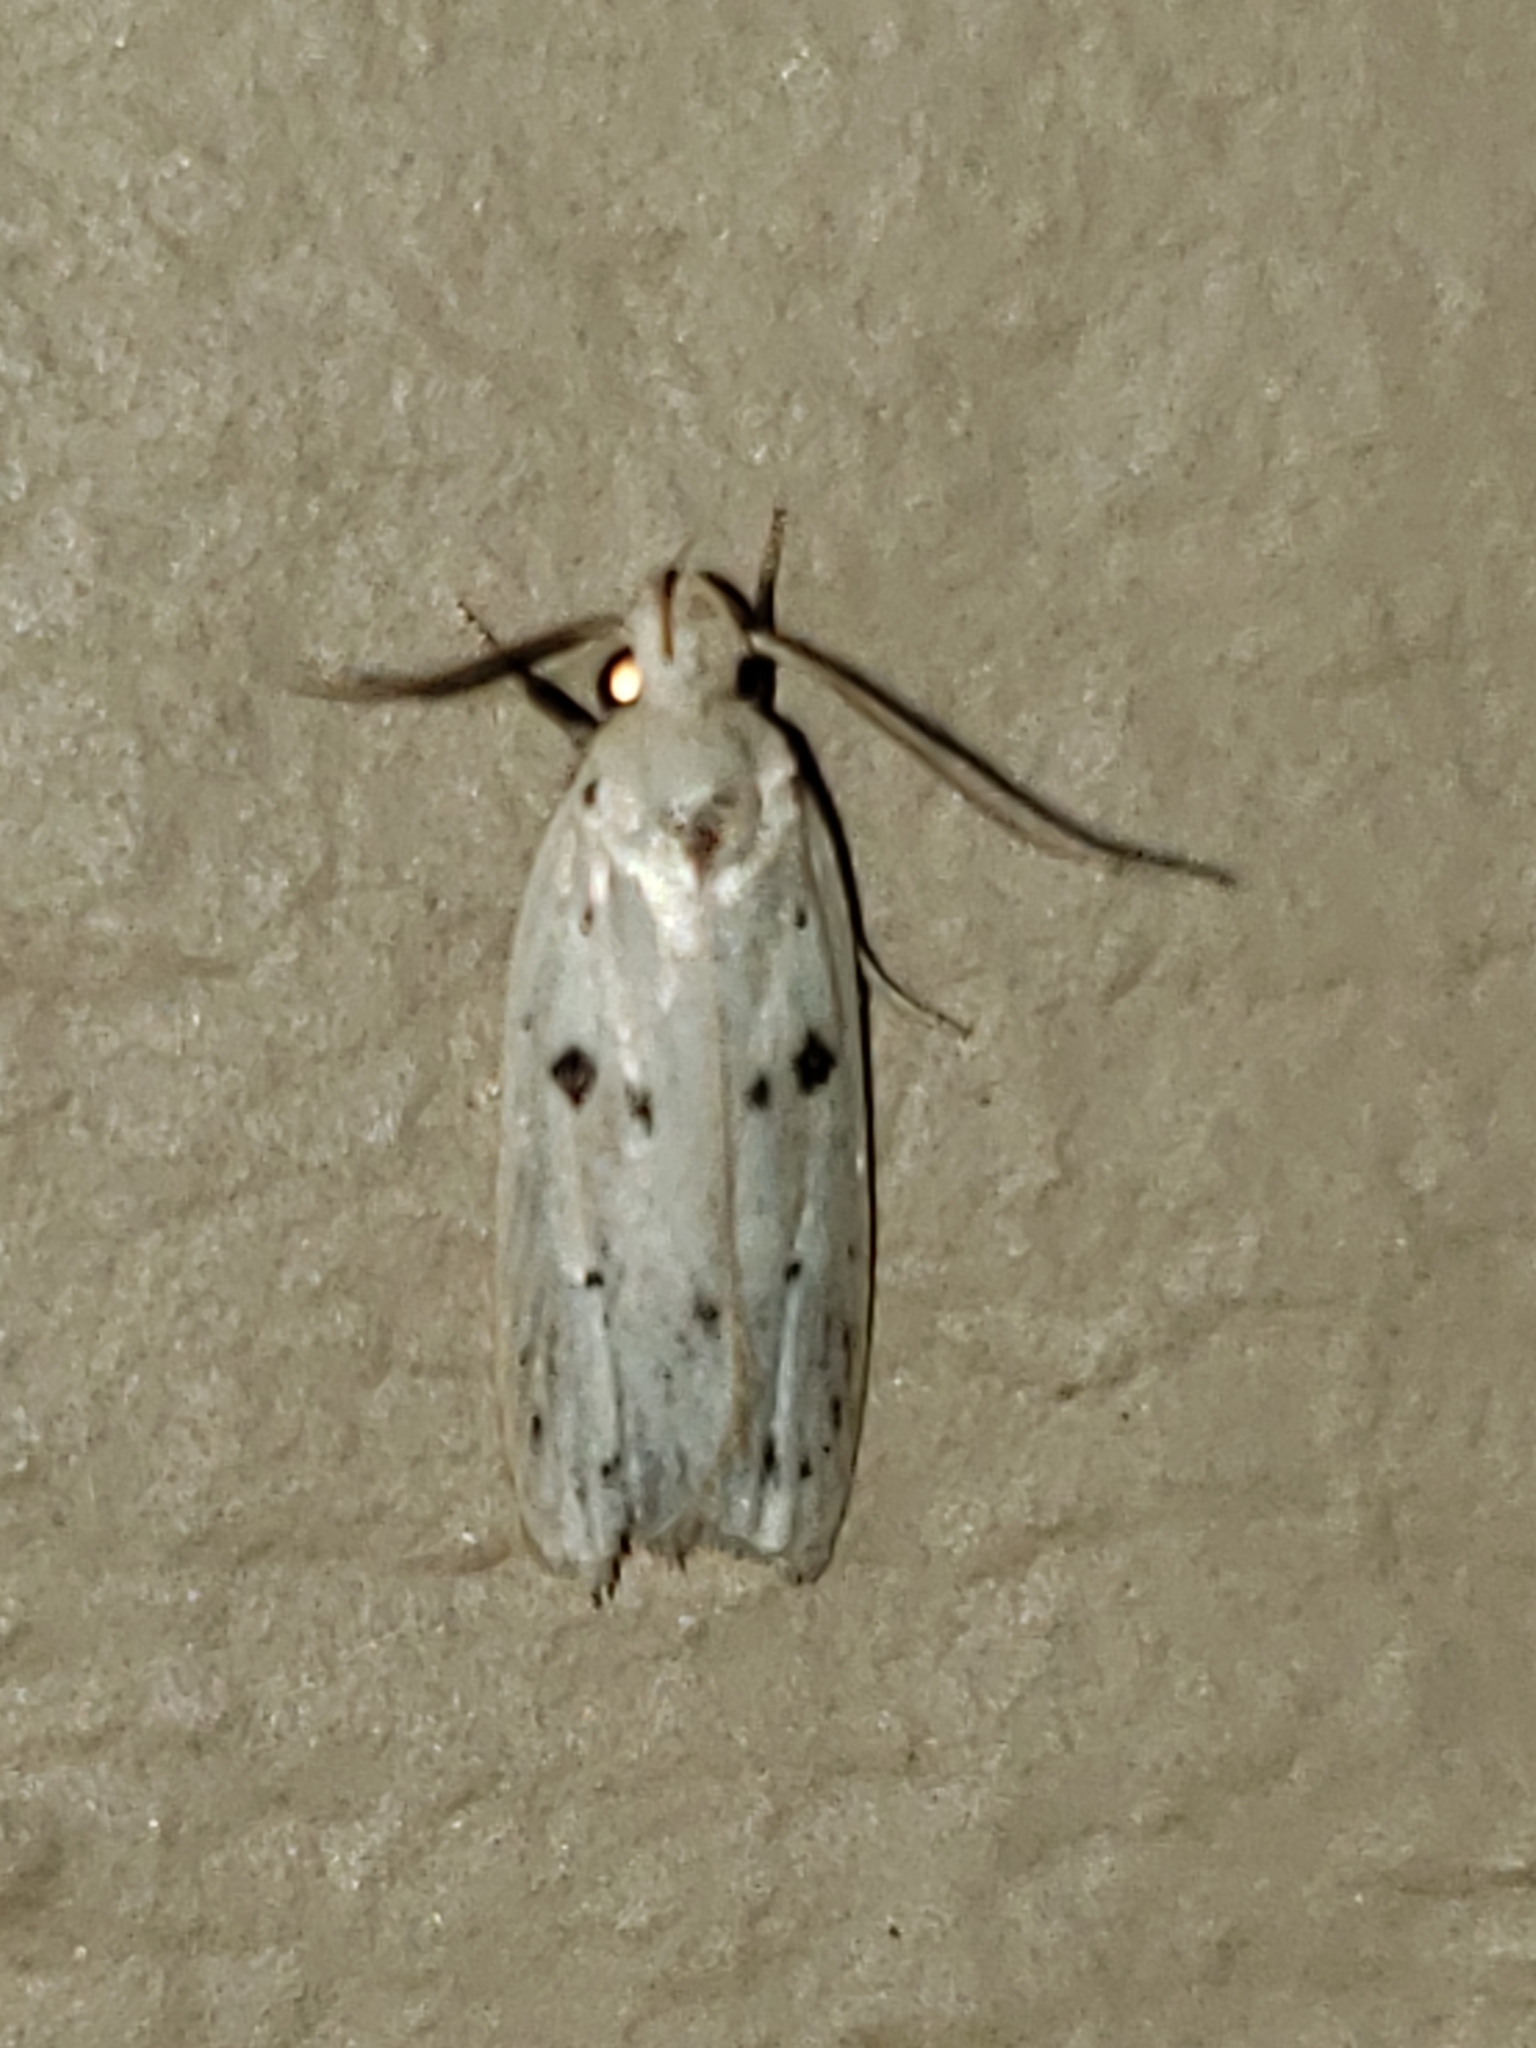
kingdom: Animalia
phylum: Arthropoda
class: Insecta
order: Lepidoptera
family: Peleopodidae
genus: Scythropiodes
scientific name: Scythropiodes issikii
